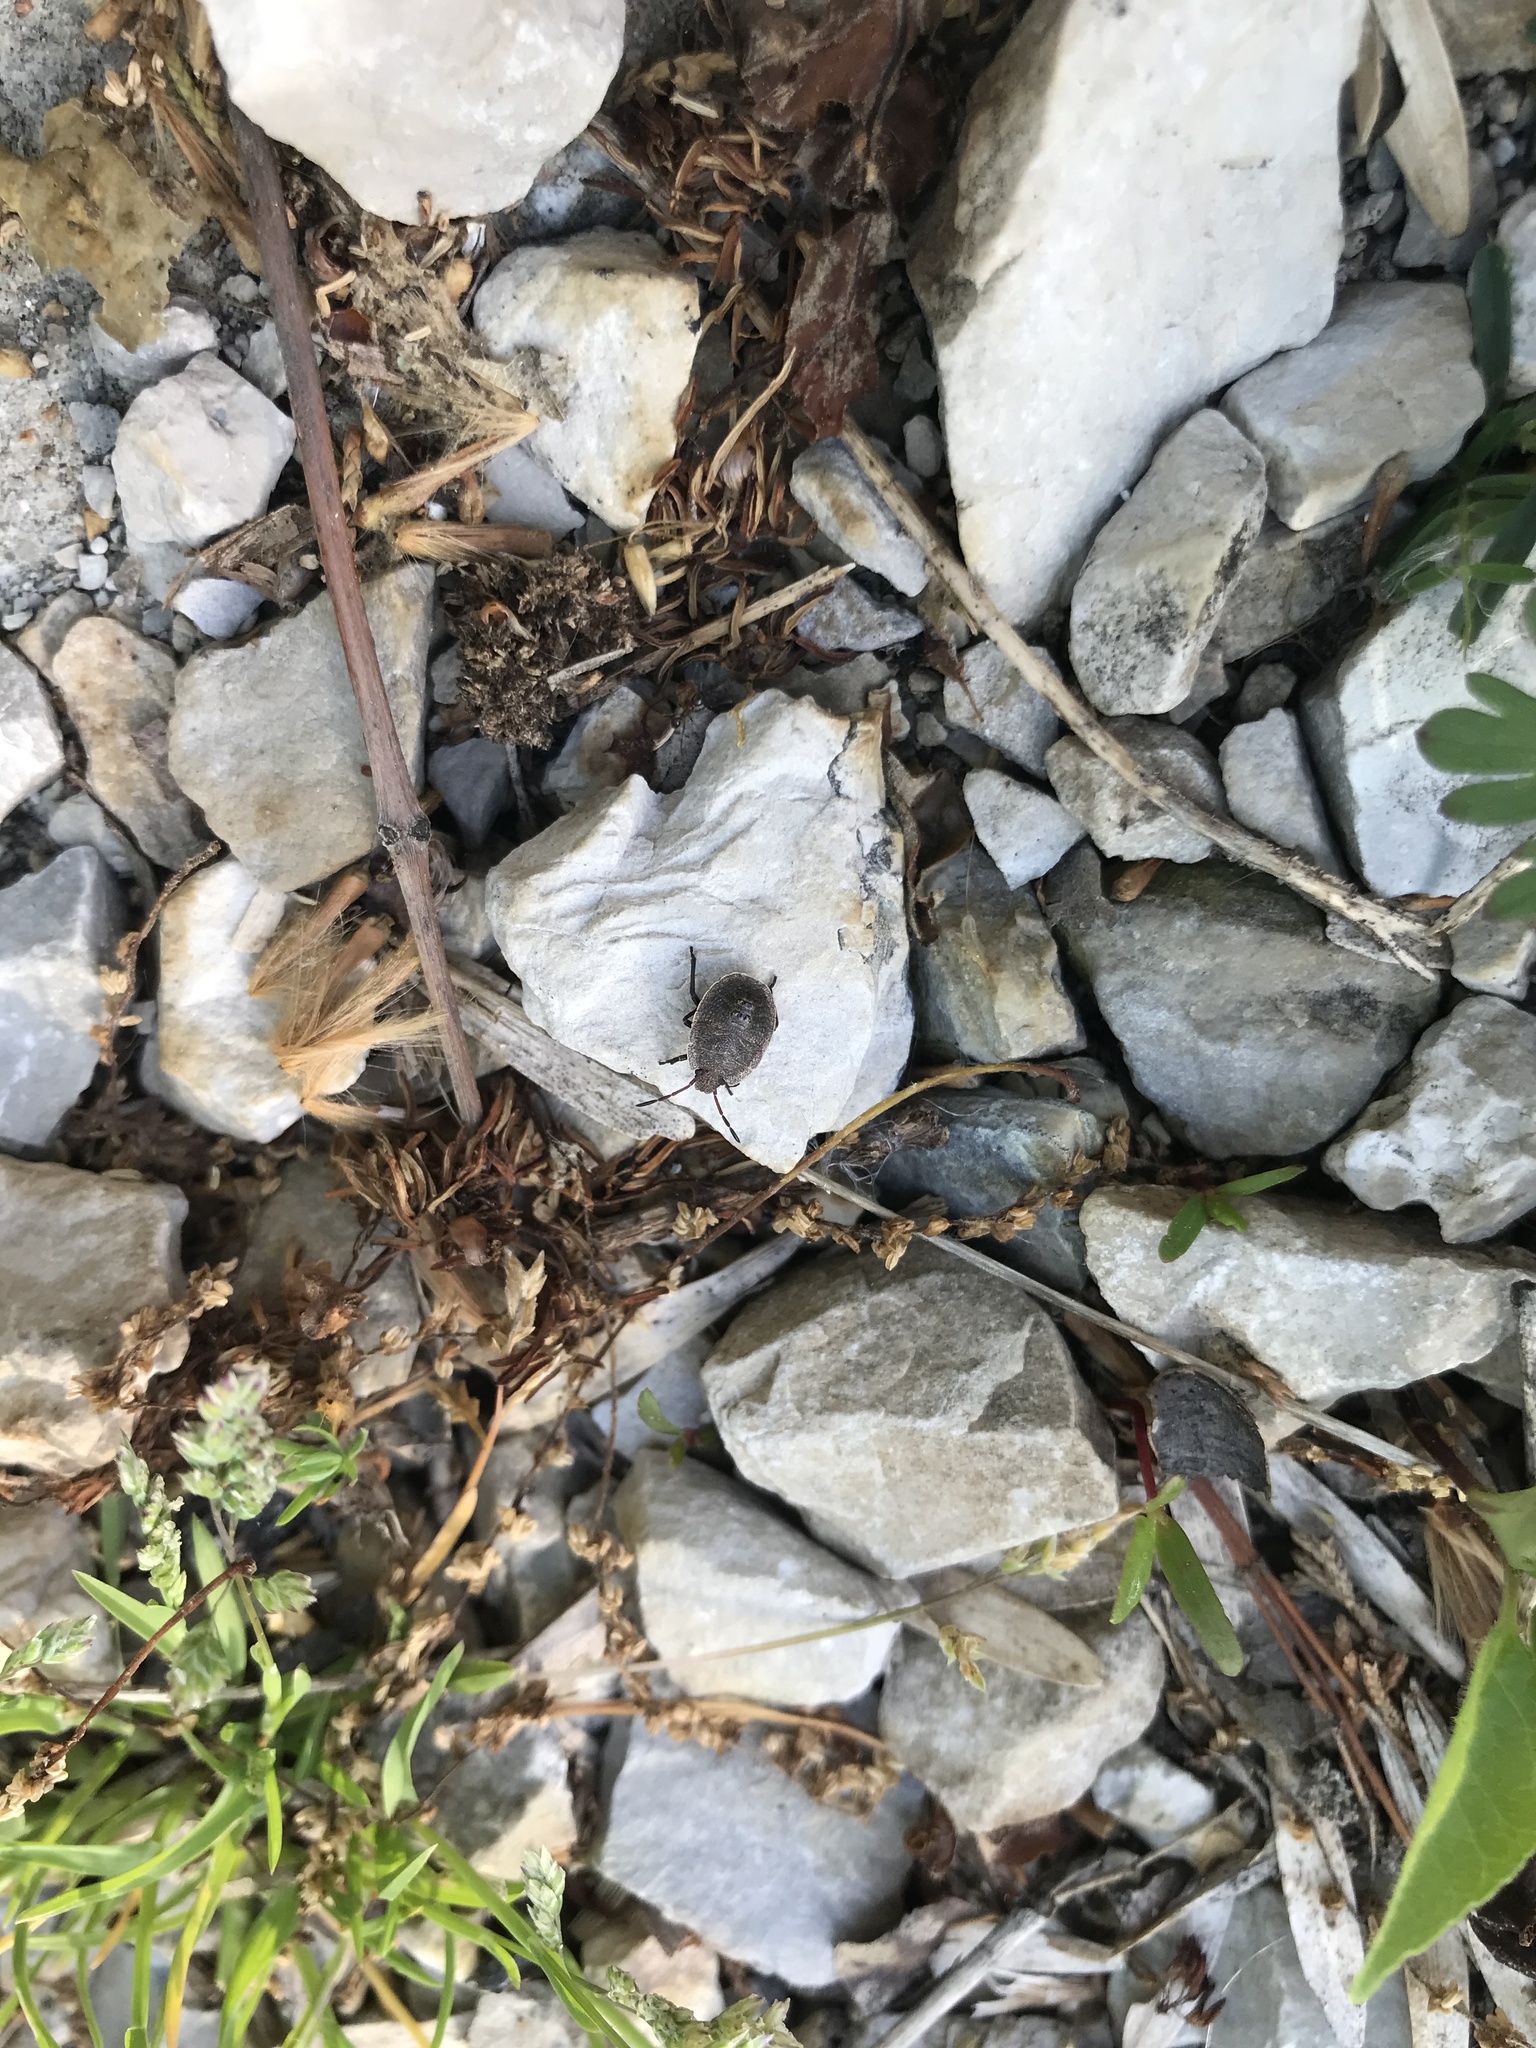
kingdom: Animalia
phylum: Arthropoda
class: Insecta
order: Hemiptera
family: Pentatomidae
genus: Menecles
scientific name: Menecles insertus
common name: Elf shoe stink bug
